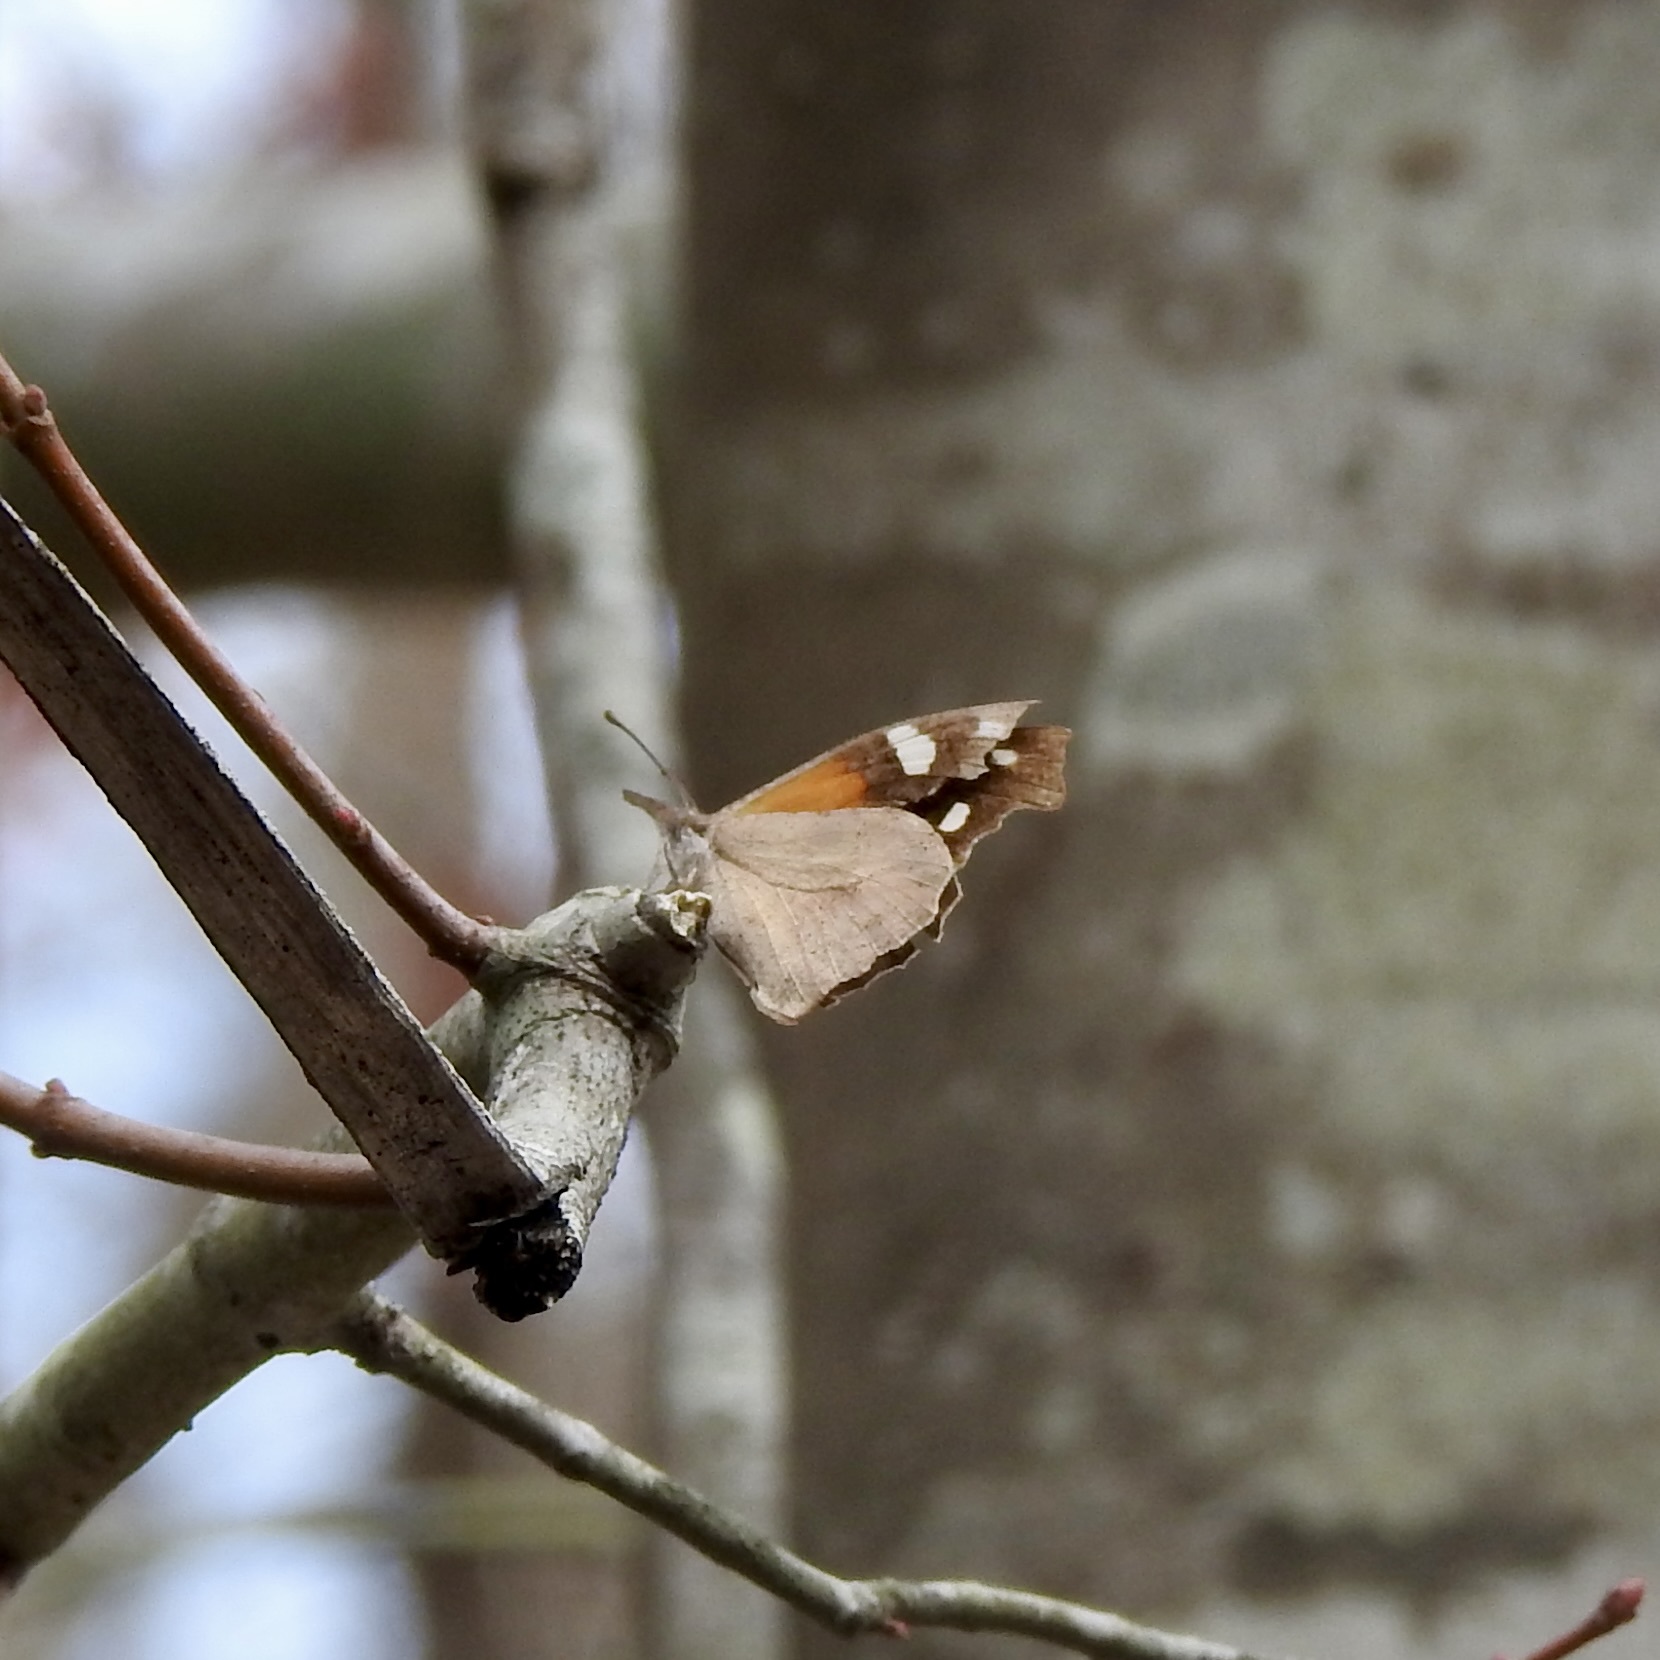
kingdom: Animalia
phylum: Arthropoda
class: Insecta
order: Lepidoptera
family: Nymphalidae
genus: Libytheana
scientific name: Libytheana carinenta
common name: American snout
